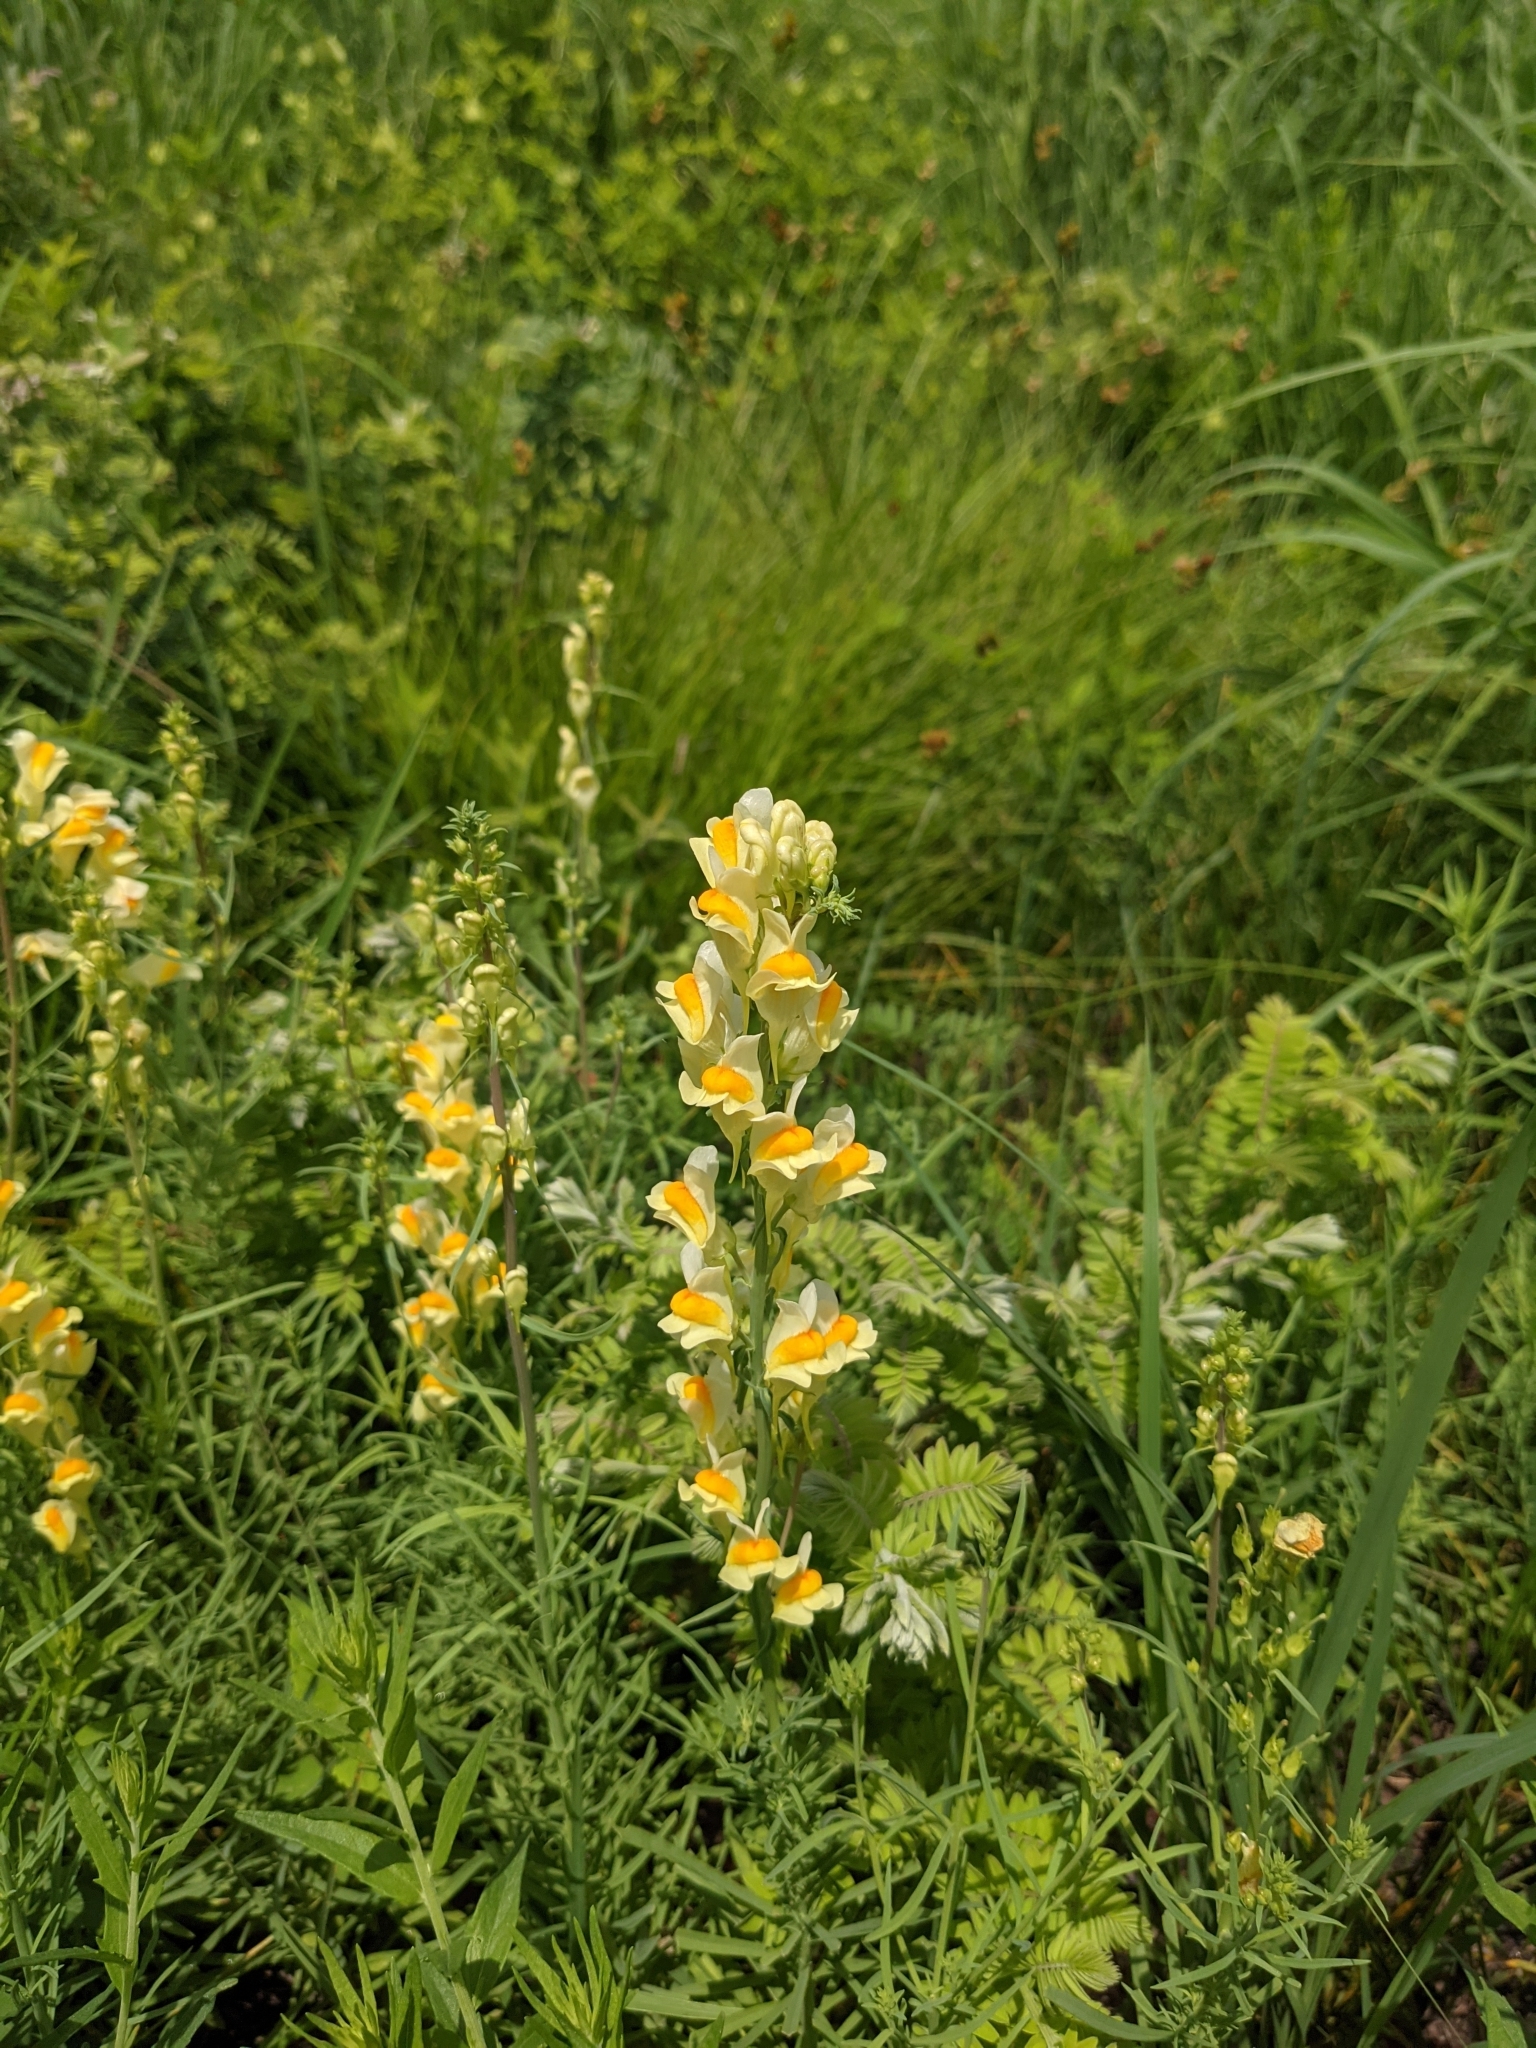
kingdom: Plantae
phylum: Tracheophyta
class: Magnoliopsida
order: Lamiales
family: Plantaginaceae
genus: Linaria
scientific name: Linaria vulgaris
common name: Butter and eggs
